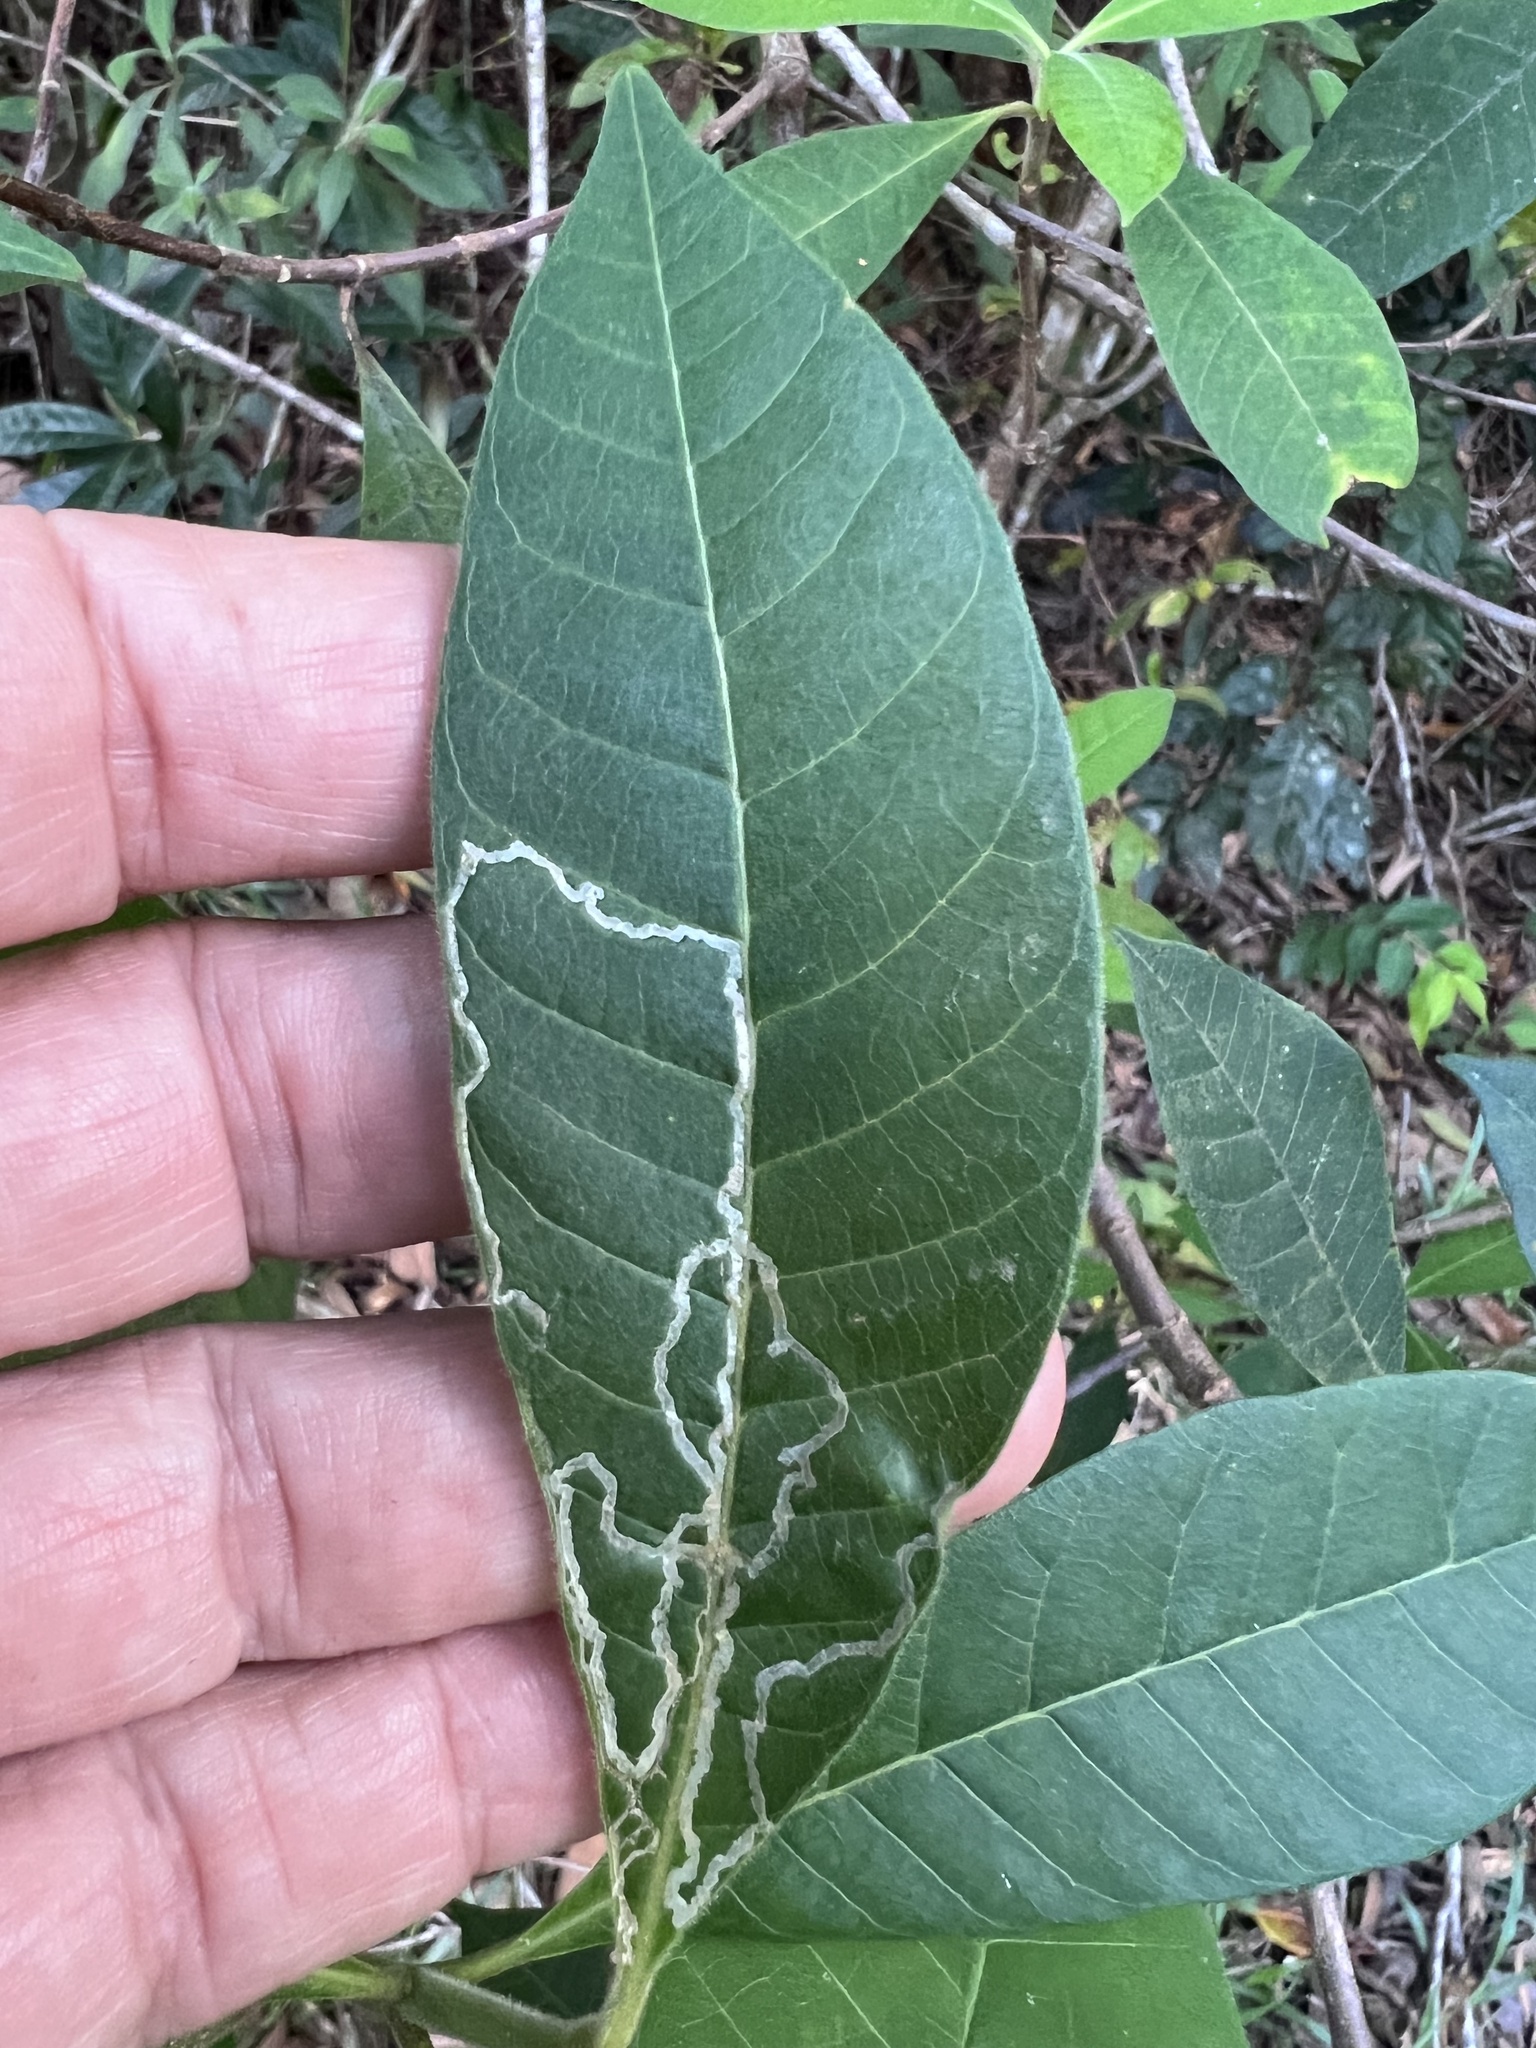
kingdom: Plantae
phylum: Tracheophyta
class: Magnoliopsida
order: Gentianales
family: Apocynaceae
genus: Alstonia
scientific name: Alstonia muelleriana
